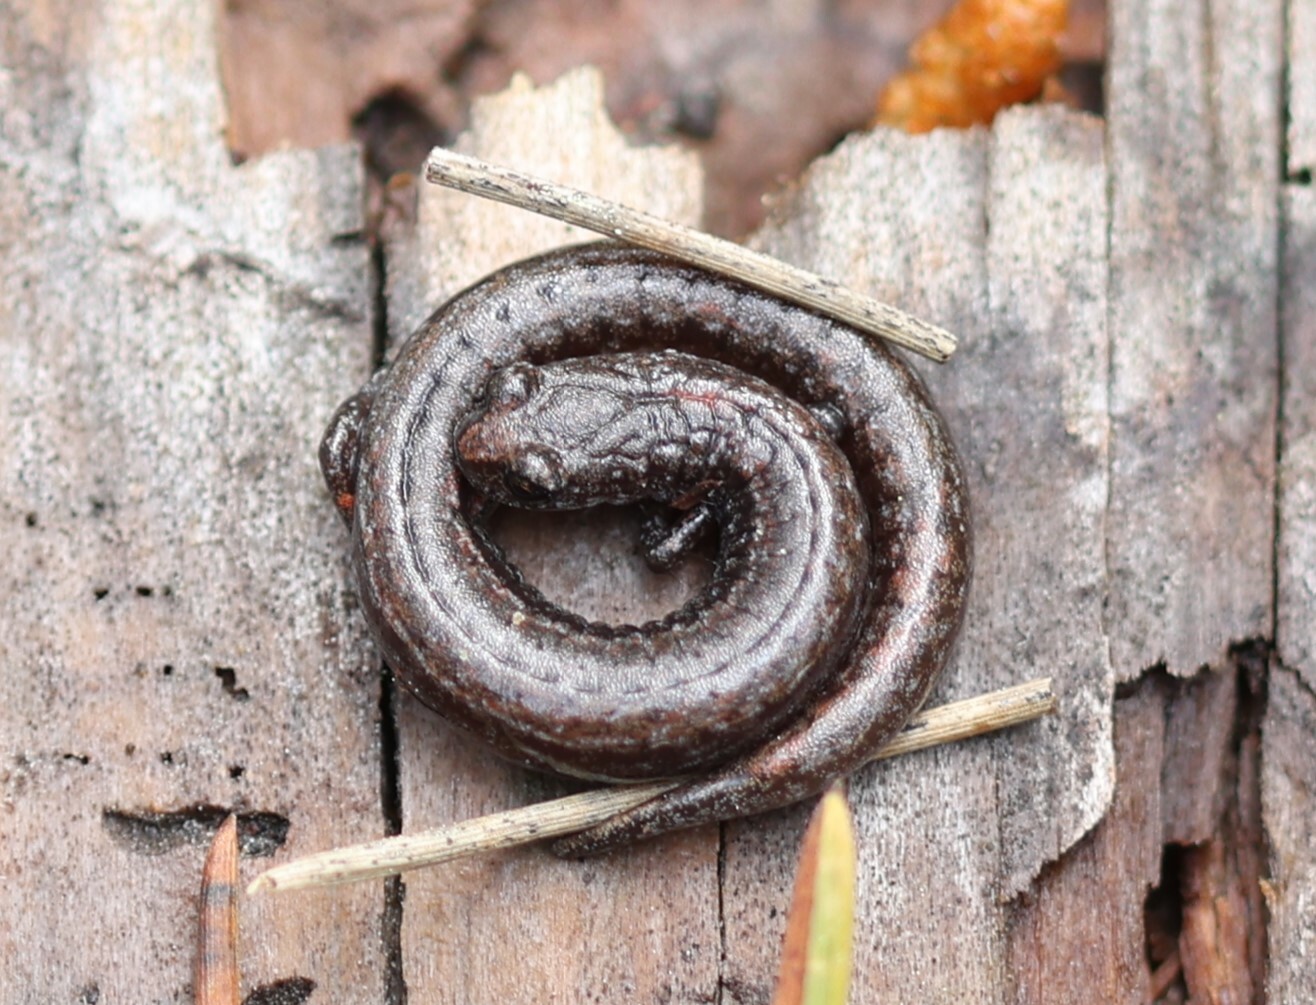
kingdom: Animalia
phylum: Chordata
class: Amphibia
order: Caudata
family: Plethodontidae
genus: Batrachoseps
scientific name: Batrachoseps luciae
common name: Santa lucia mountains slender salamander
